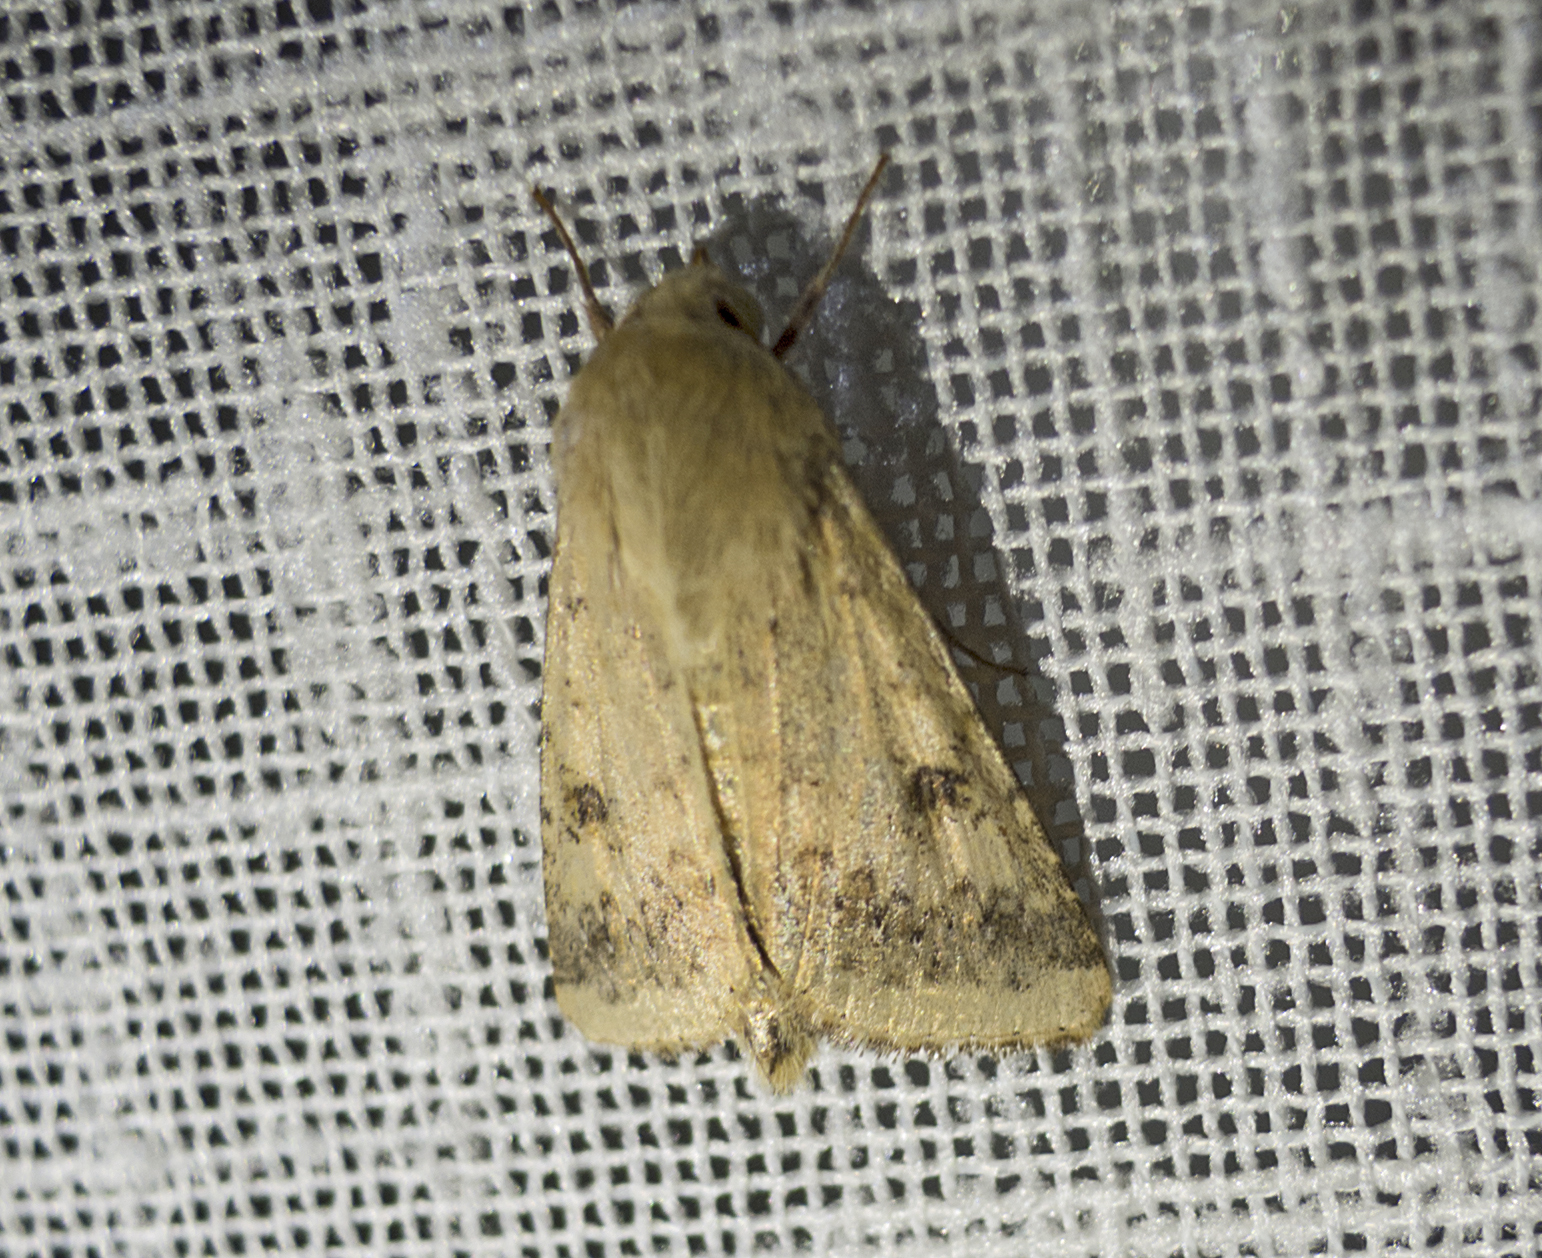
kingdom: Animalia
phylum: Arthropoda
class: Insecta
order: Lepidoptera
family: Noctuidae
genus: Helicoverpa
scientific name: Helicoverpa armigera
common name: Cotton bollworm
